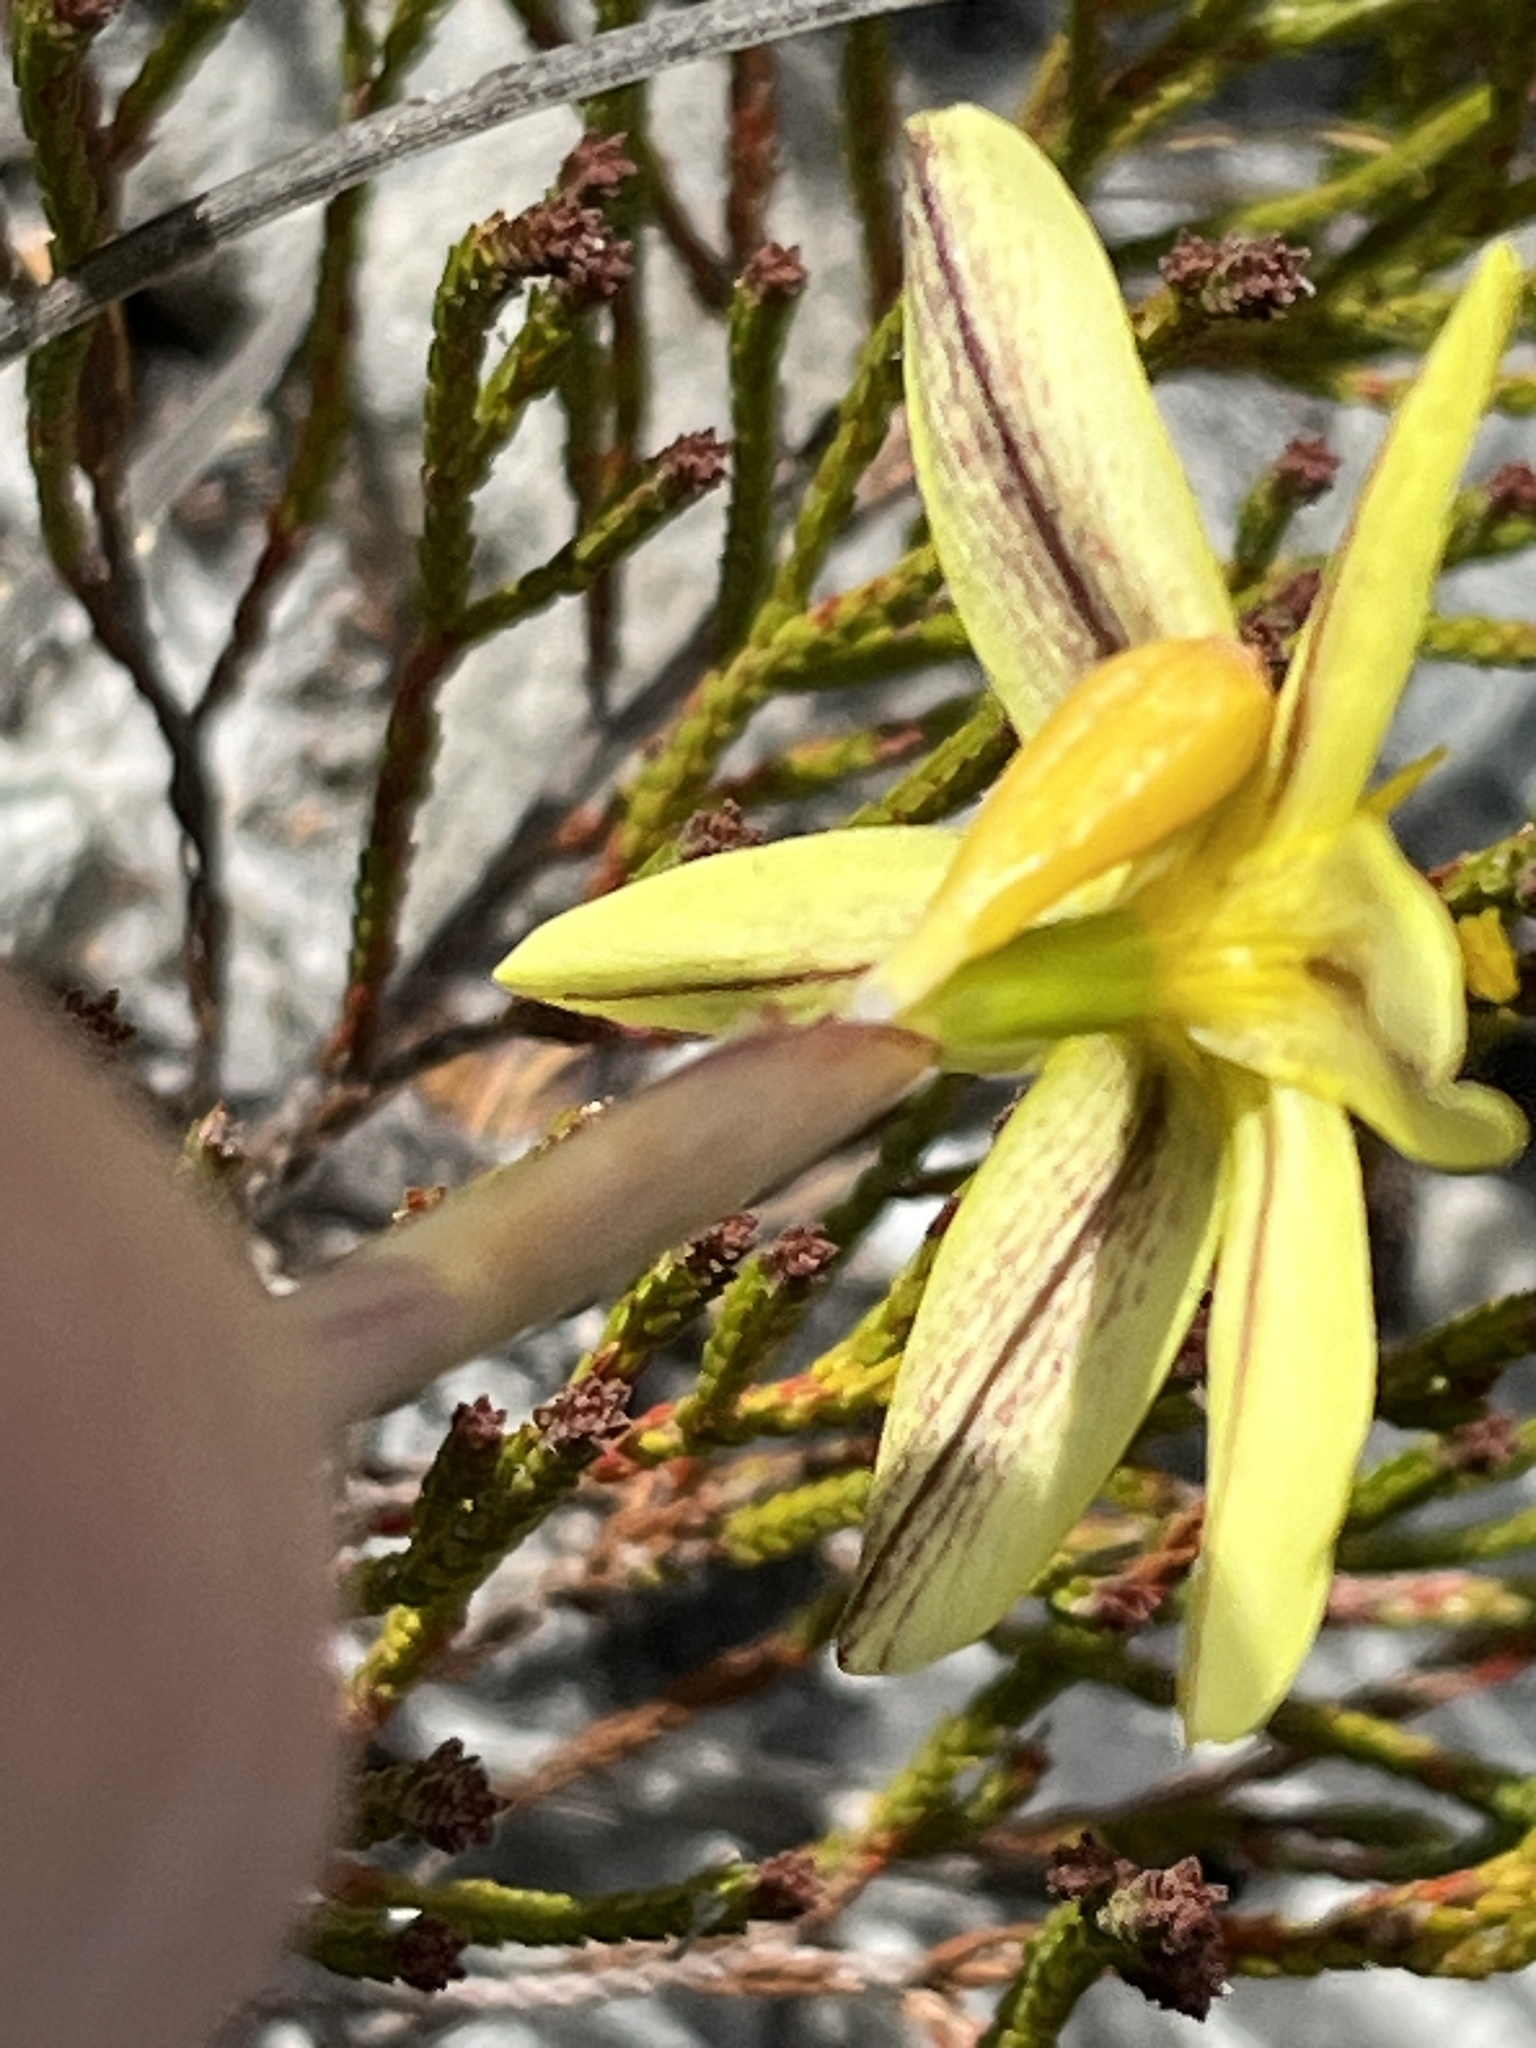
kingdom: Plantae
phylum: Tracheophyta
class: Liliopsida
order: Asparagales
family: Iridaceae
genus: Bobartia
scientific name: Bobartia filiformis
